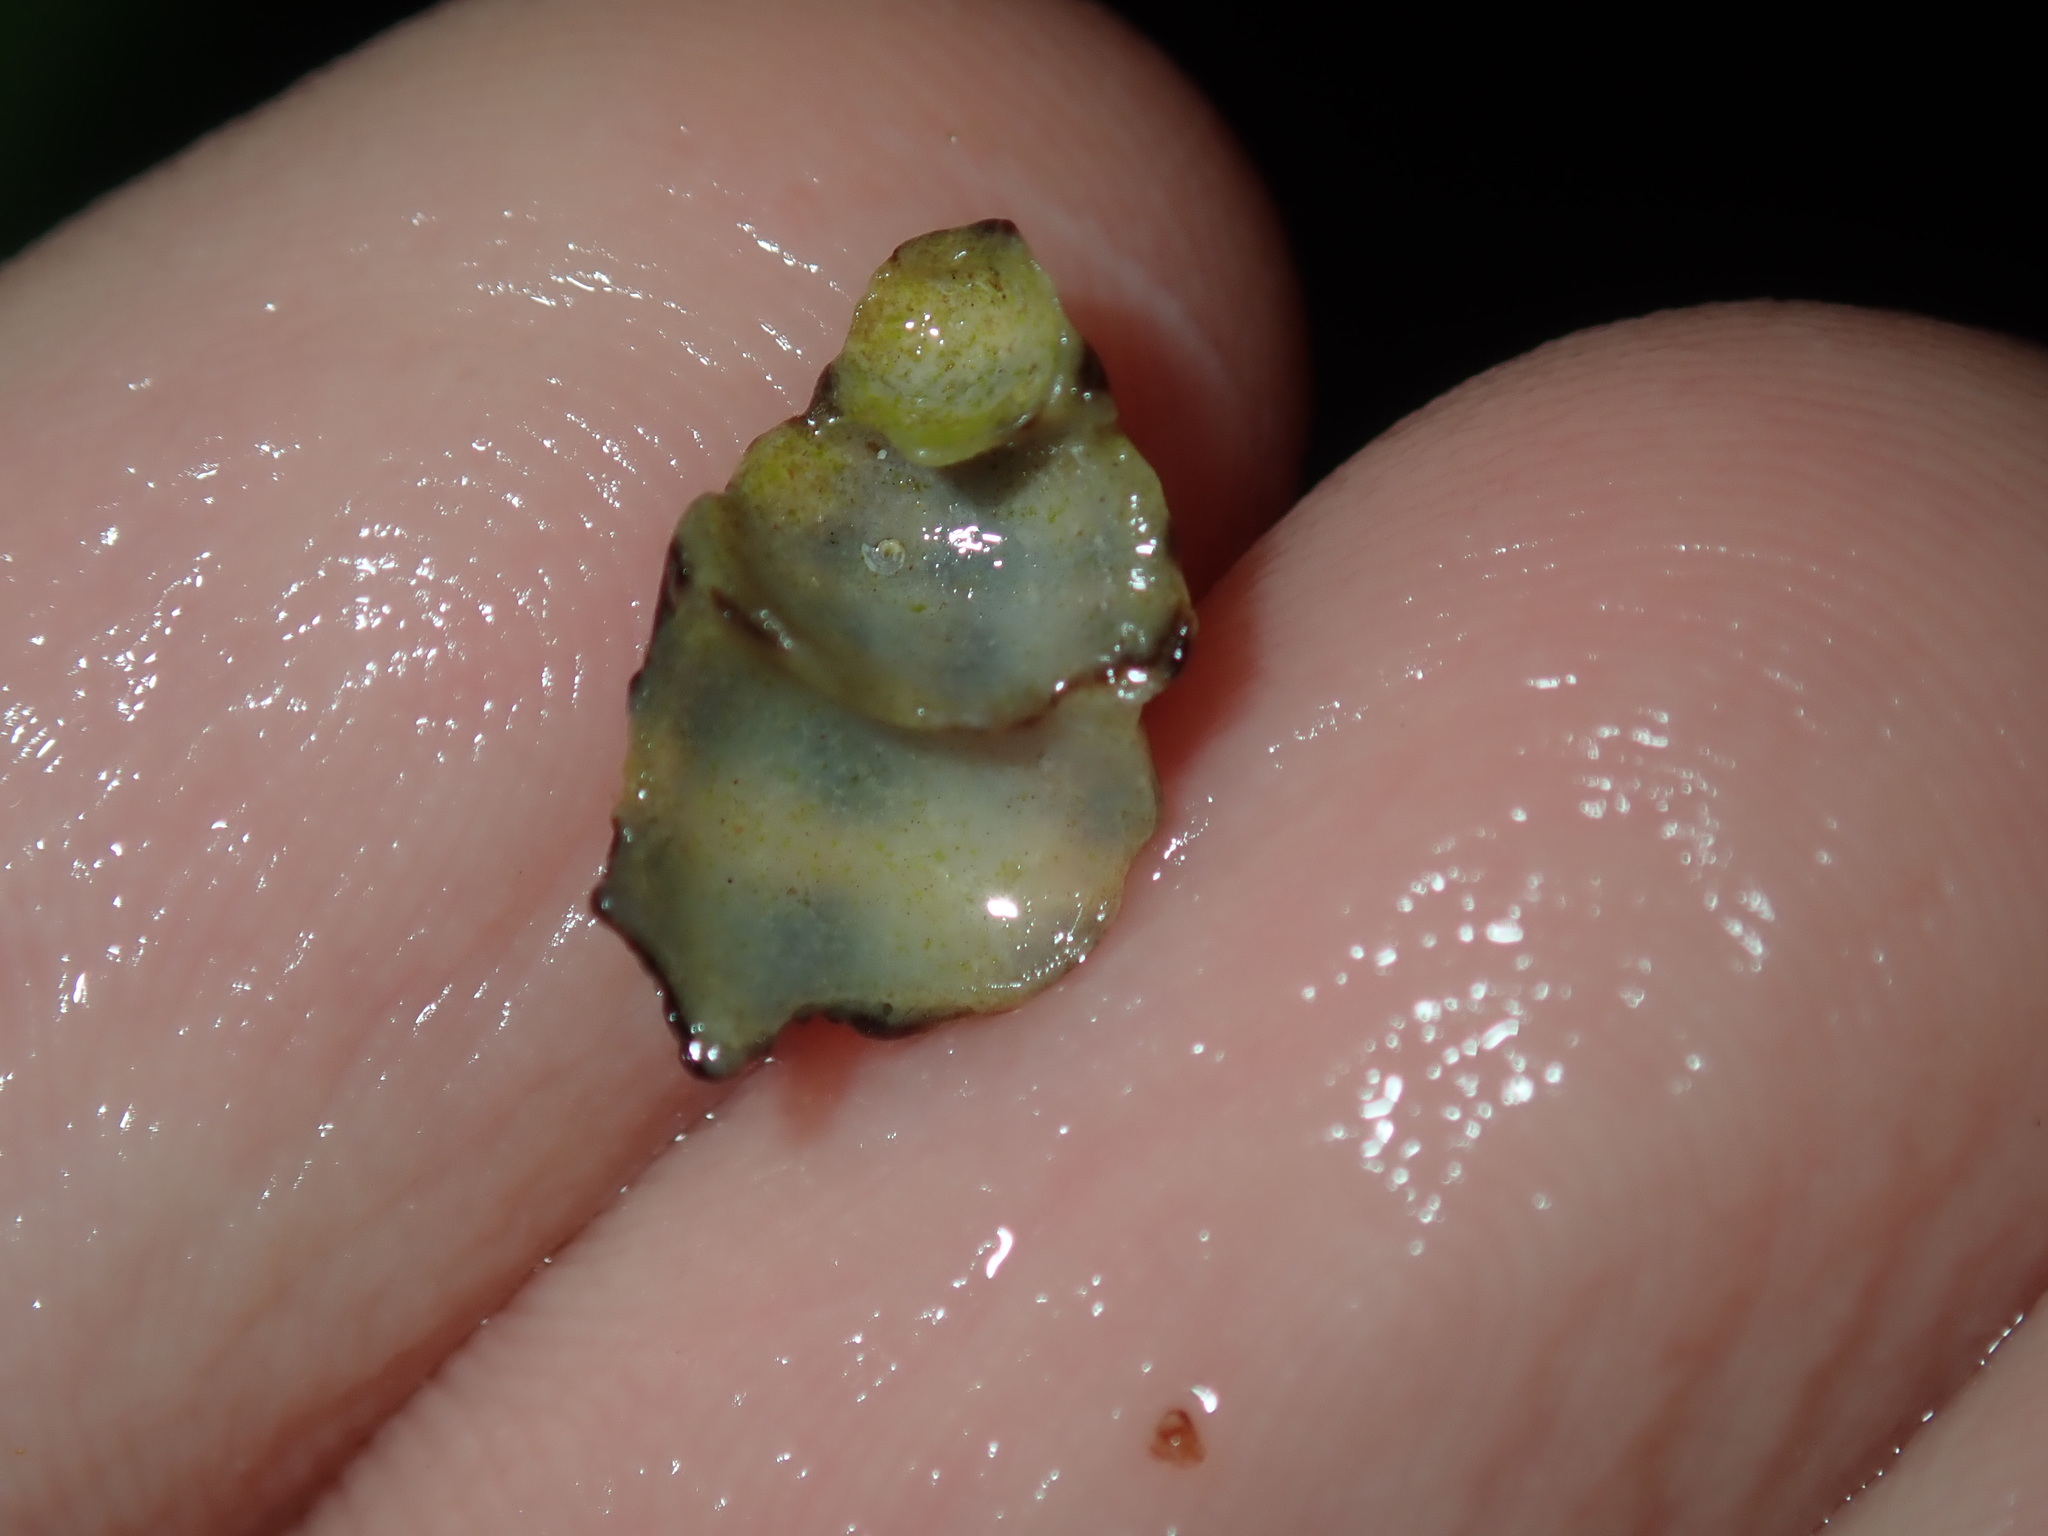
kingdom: Animalia
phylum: Mollusca
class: Gastropoda
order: Neogastropoda
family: Muricidae
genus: Cronia
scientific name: Cronia aurantiaca
